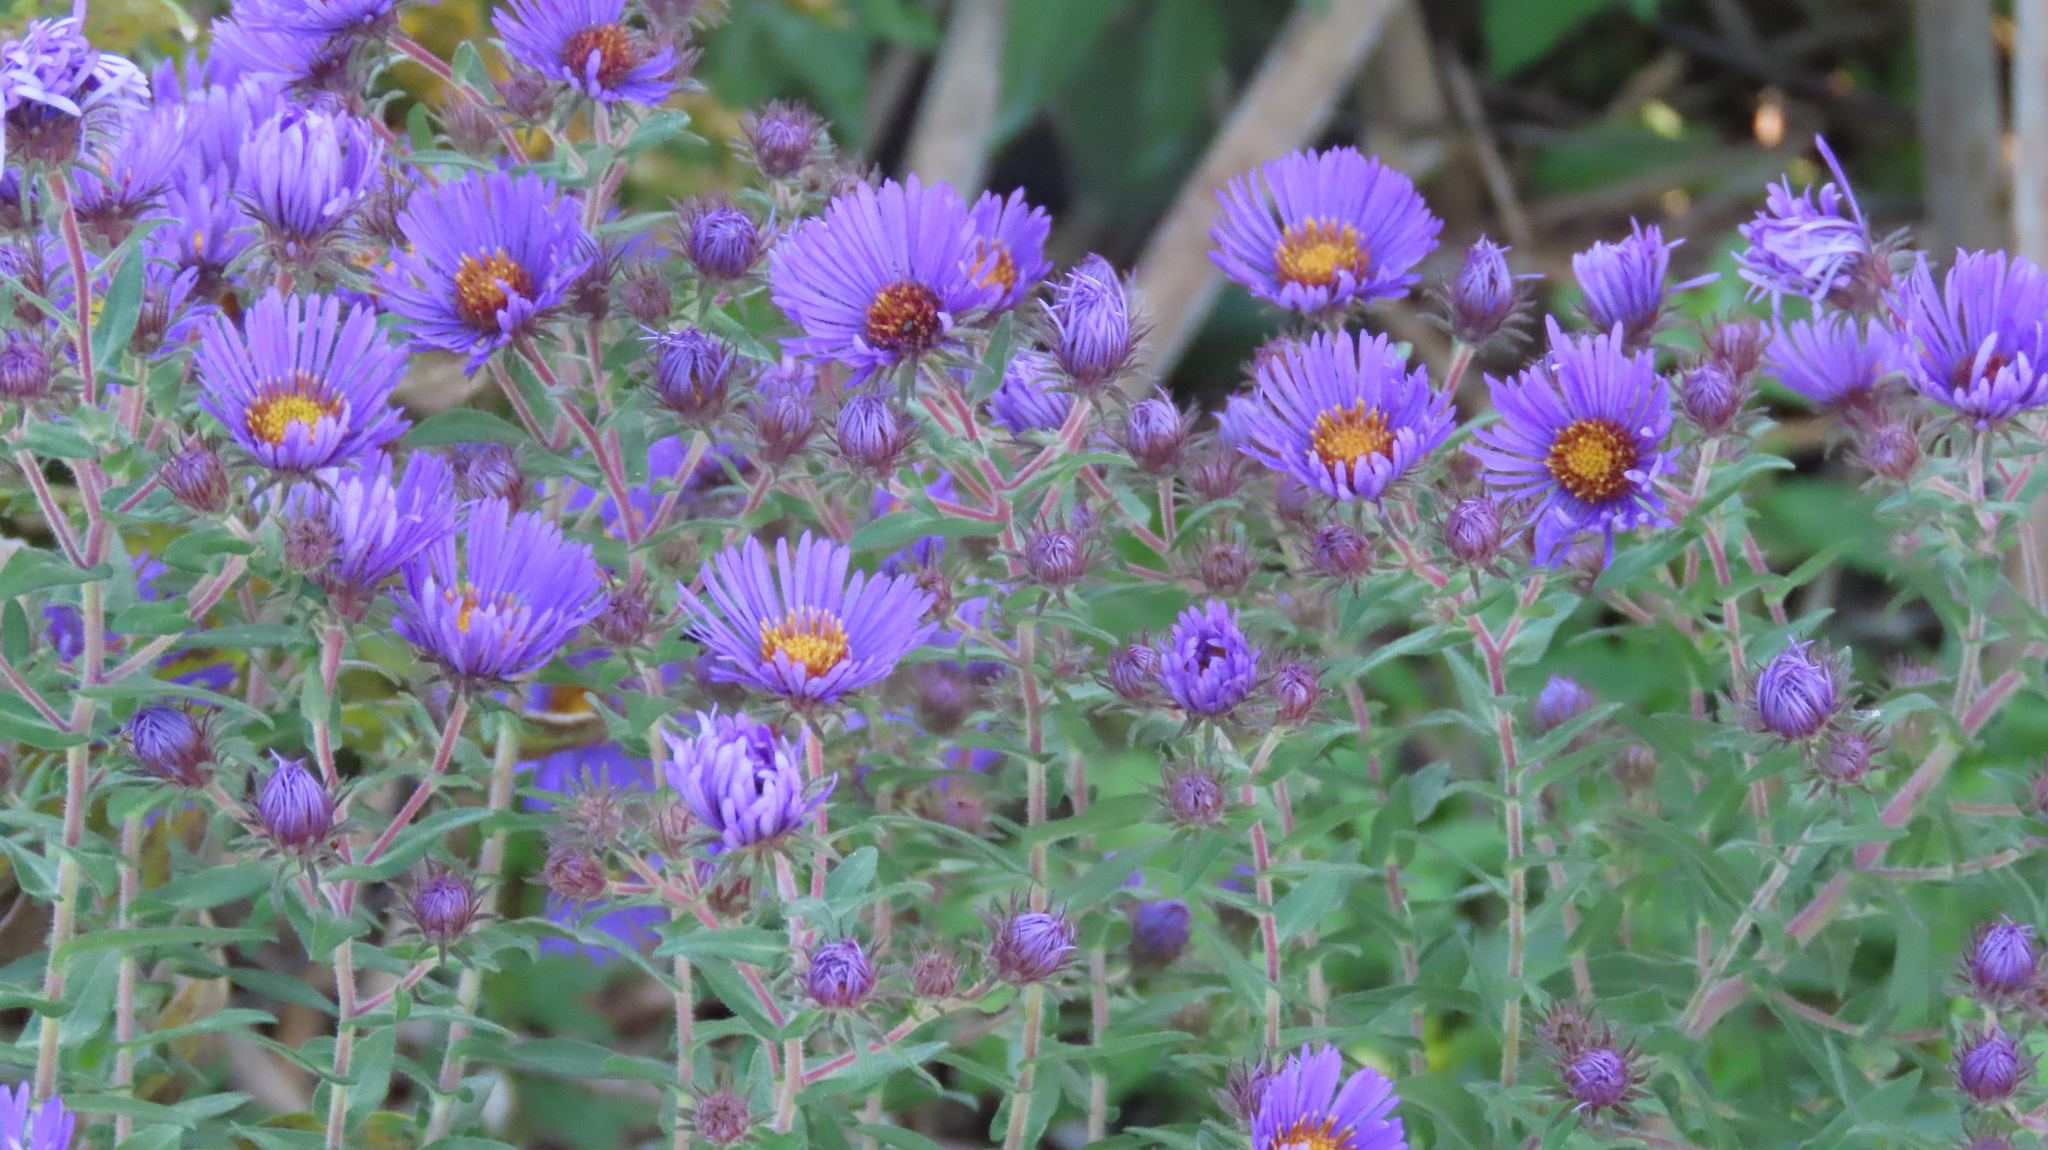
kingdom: Plantae
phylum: Tracheophyta
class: Magnoliopsida
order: Asterales
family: Asteraceae
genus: Symphyotrichum
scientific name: Symphyotrichum novae-angliae
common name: Michaelmas daisy
